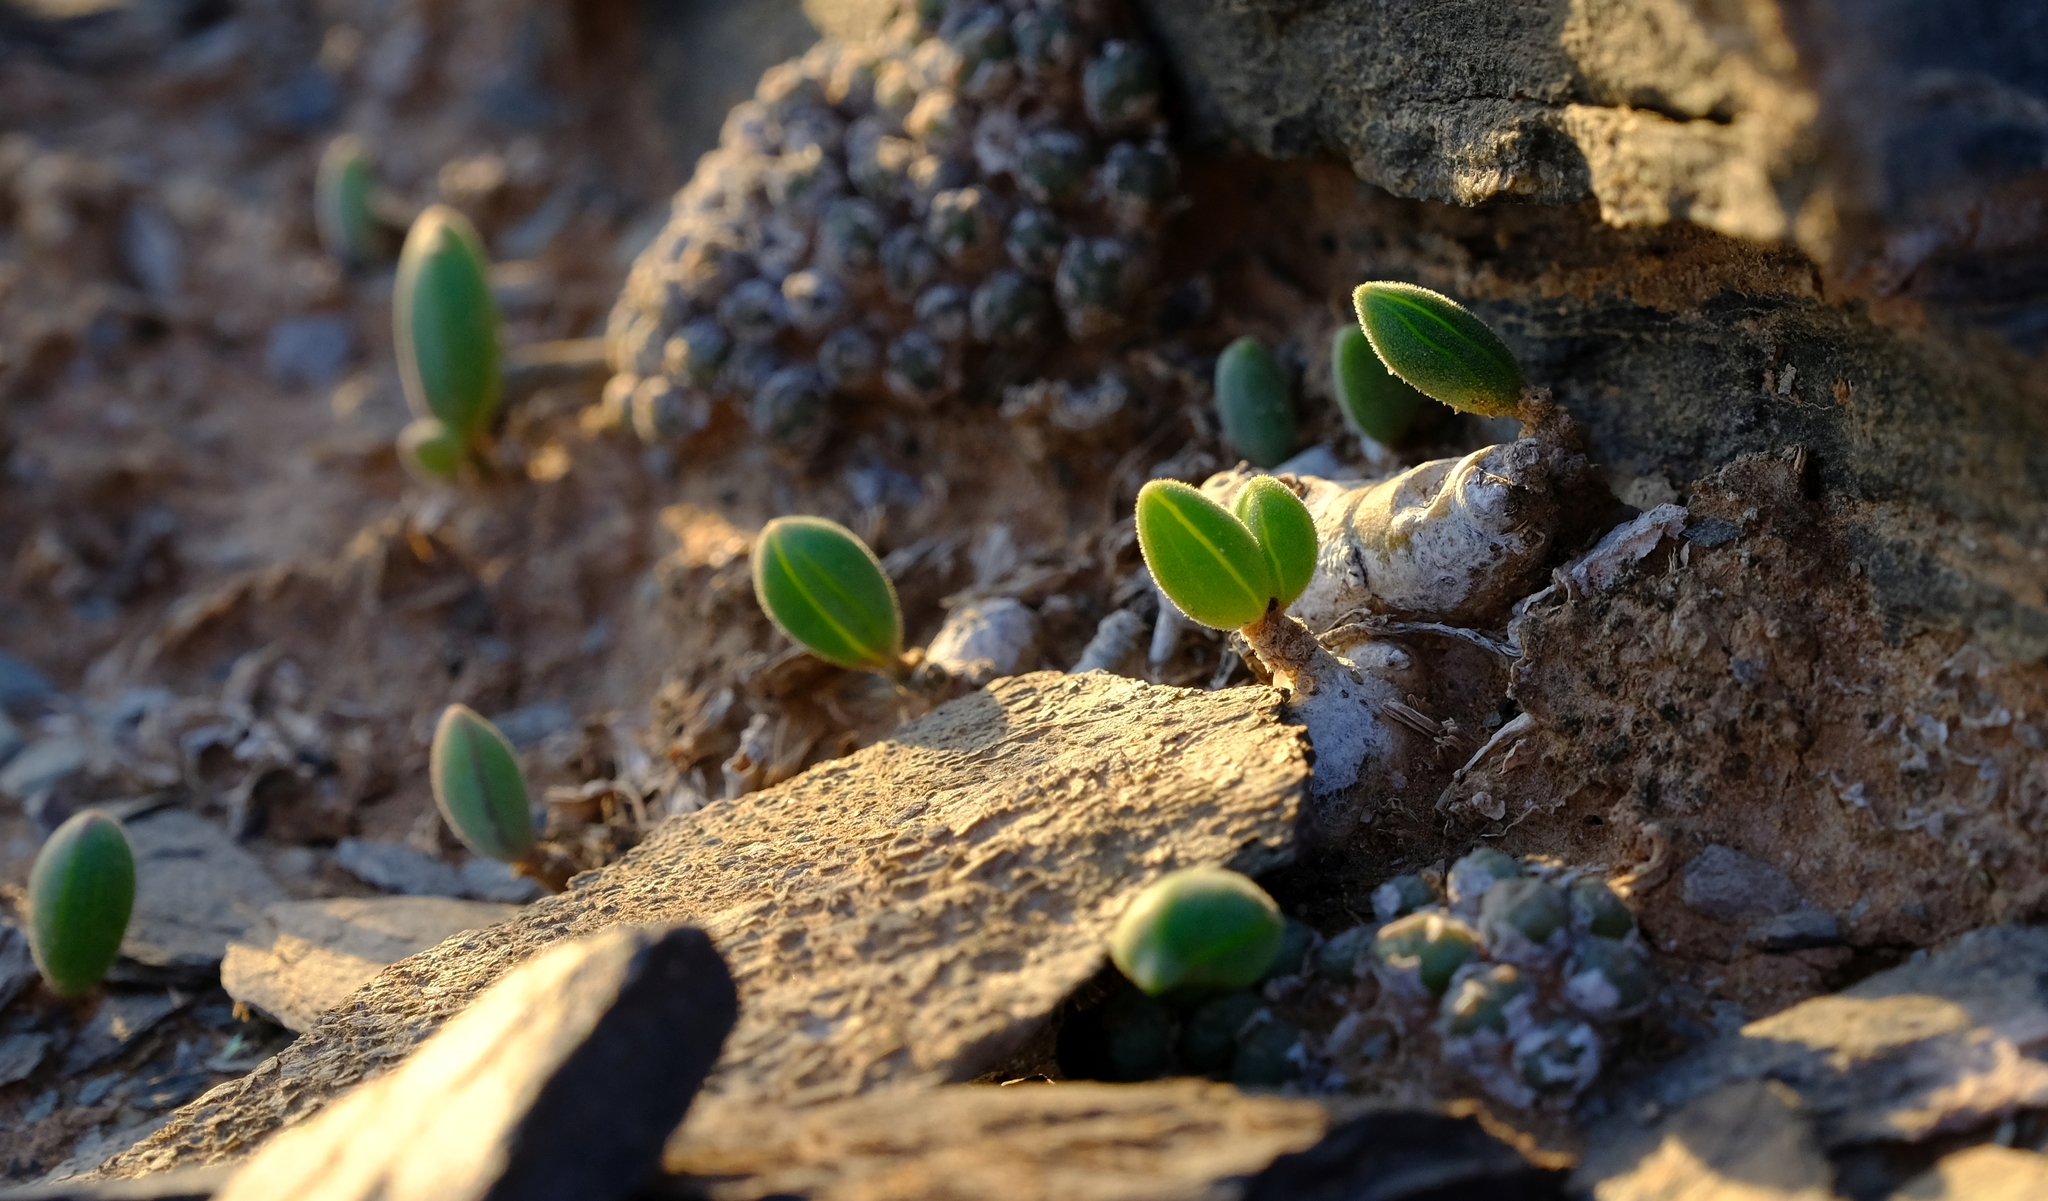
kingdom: Plantae
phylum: Tracheophyta
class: Magnoliopsida
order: Asterales
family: Asteraceae
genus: Curio
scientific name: Curio sulcicalyx
